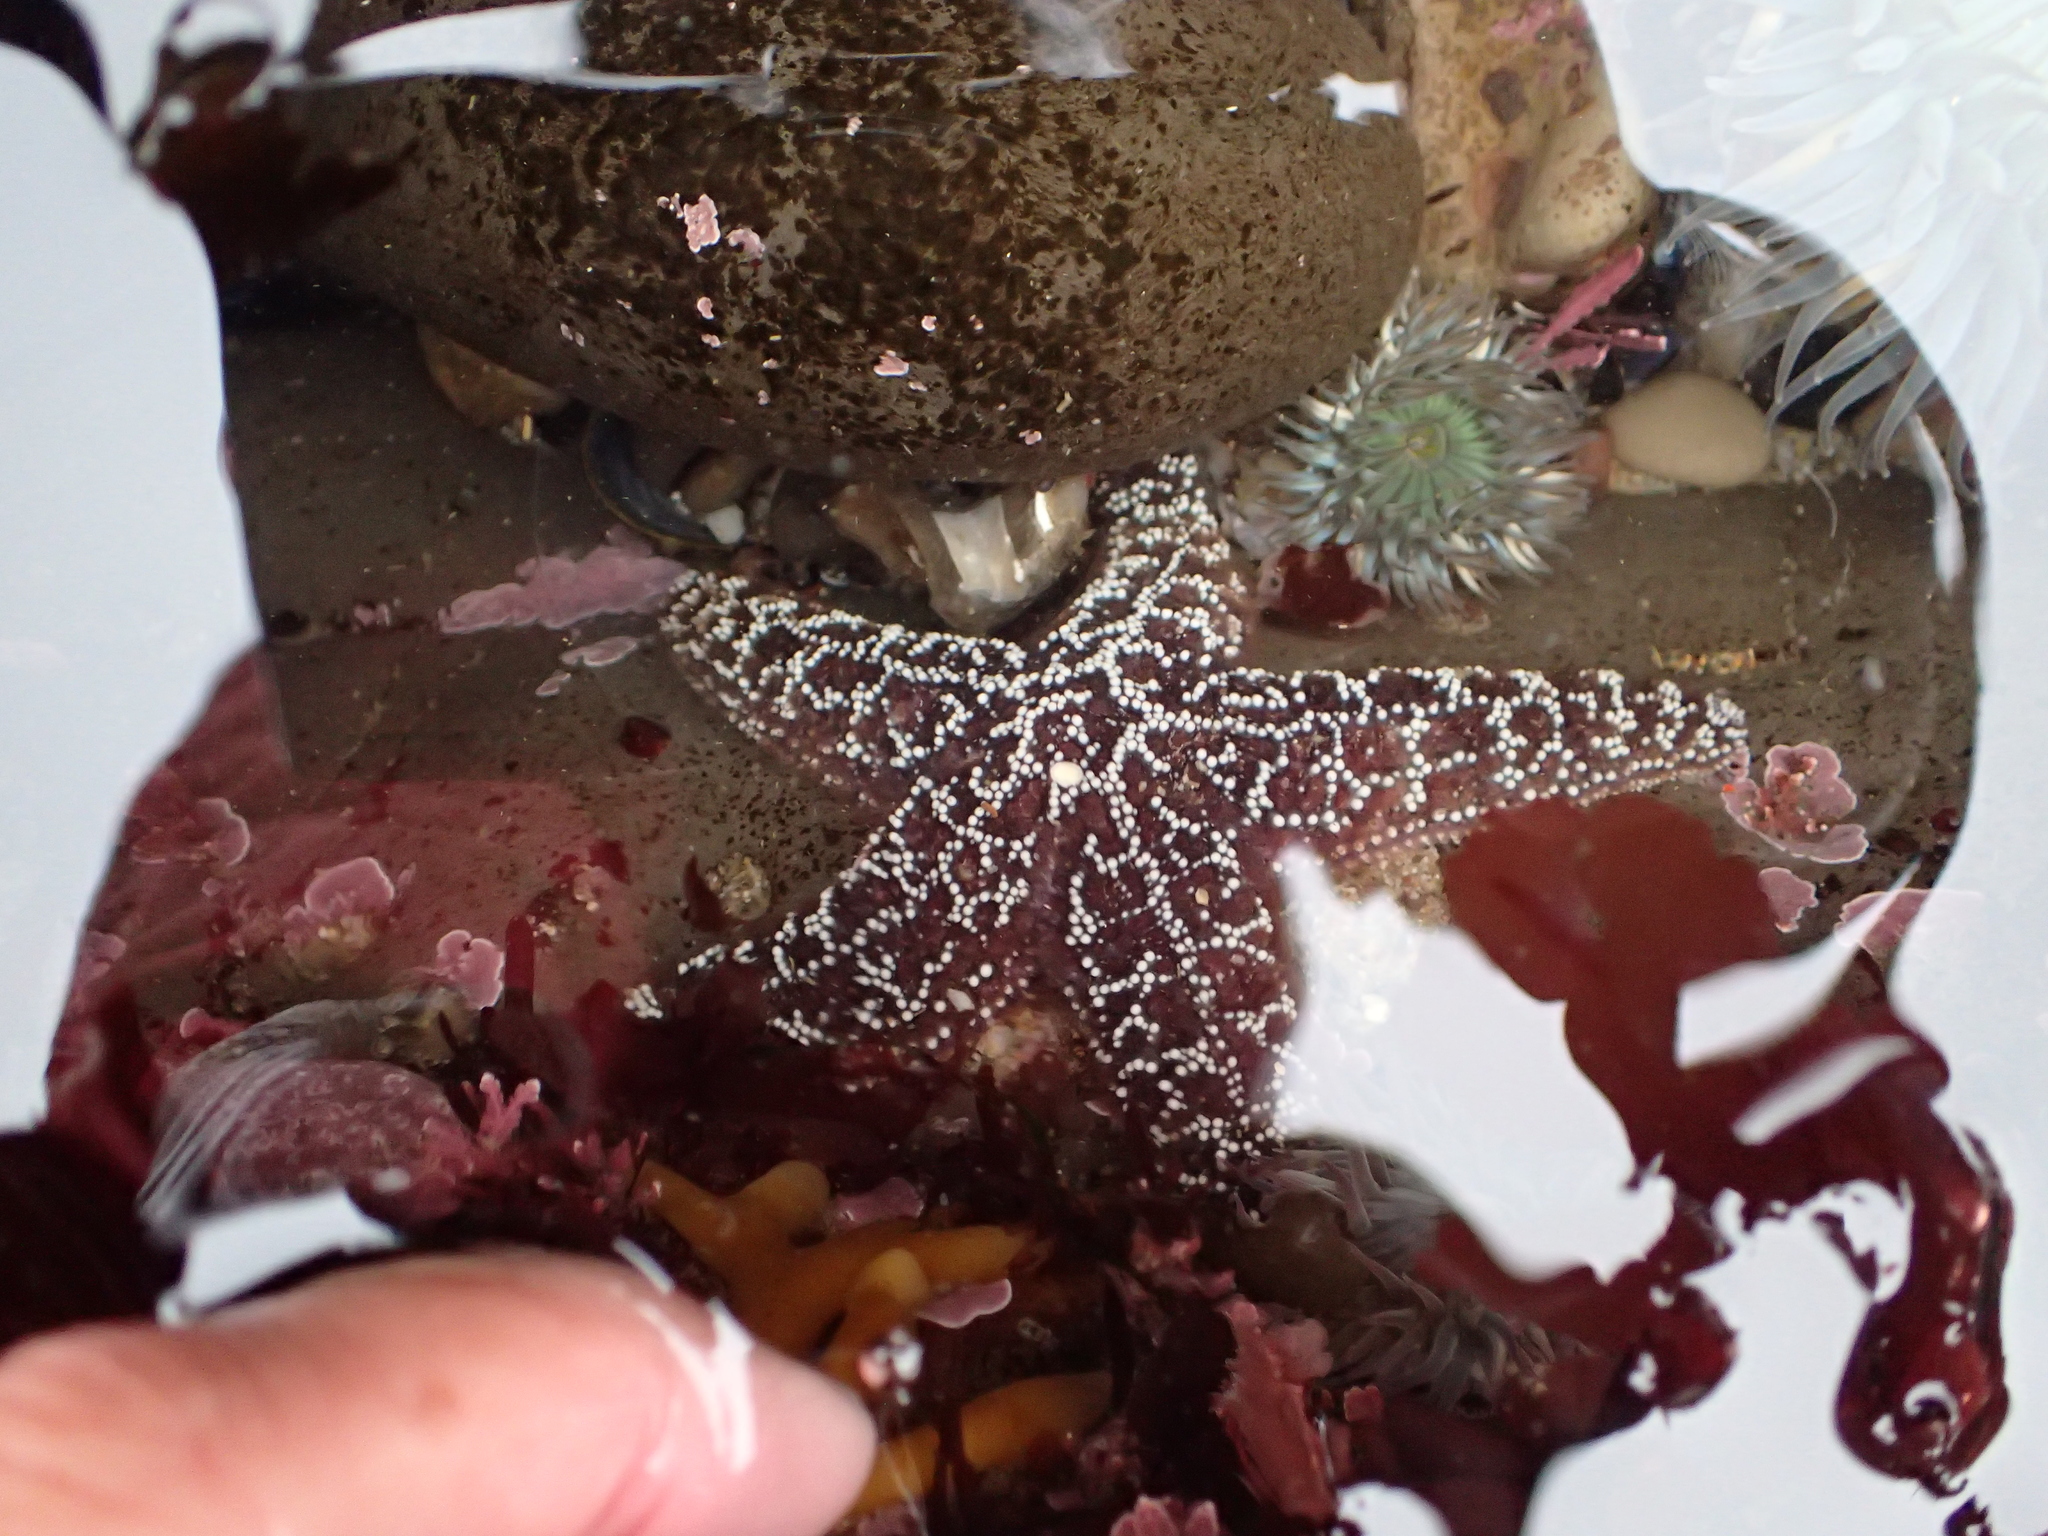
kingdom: Animalia
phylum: Echinodermata
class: Asteroidea
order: Forcipulatida
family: Asteriidae
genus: Pisaster
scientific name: Pisaster ochraceus
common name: Ochre stars
